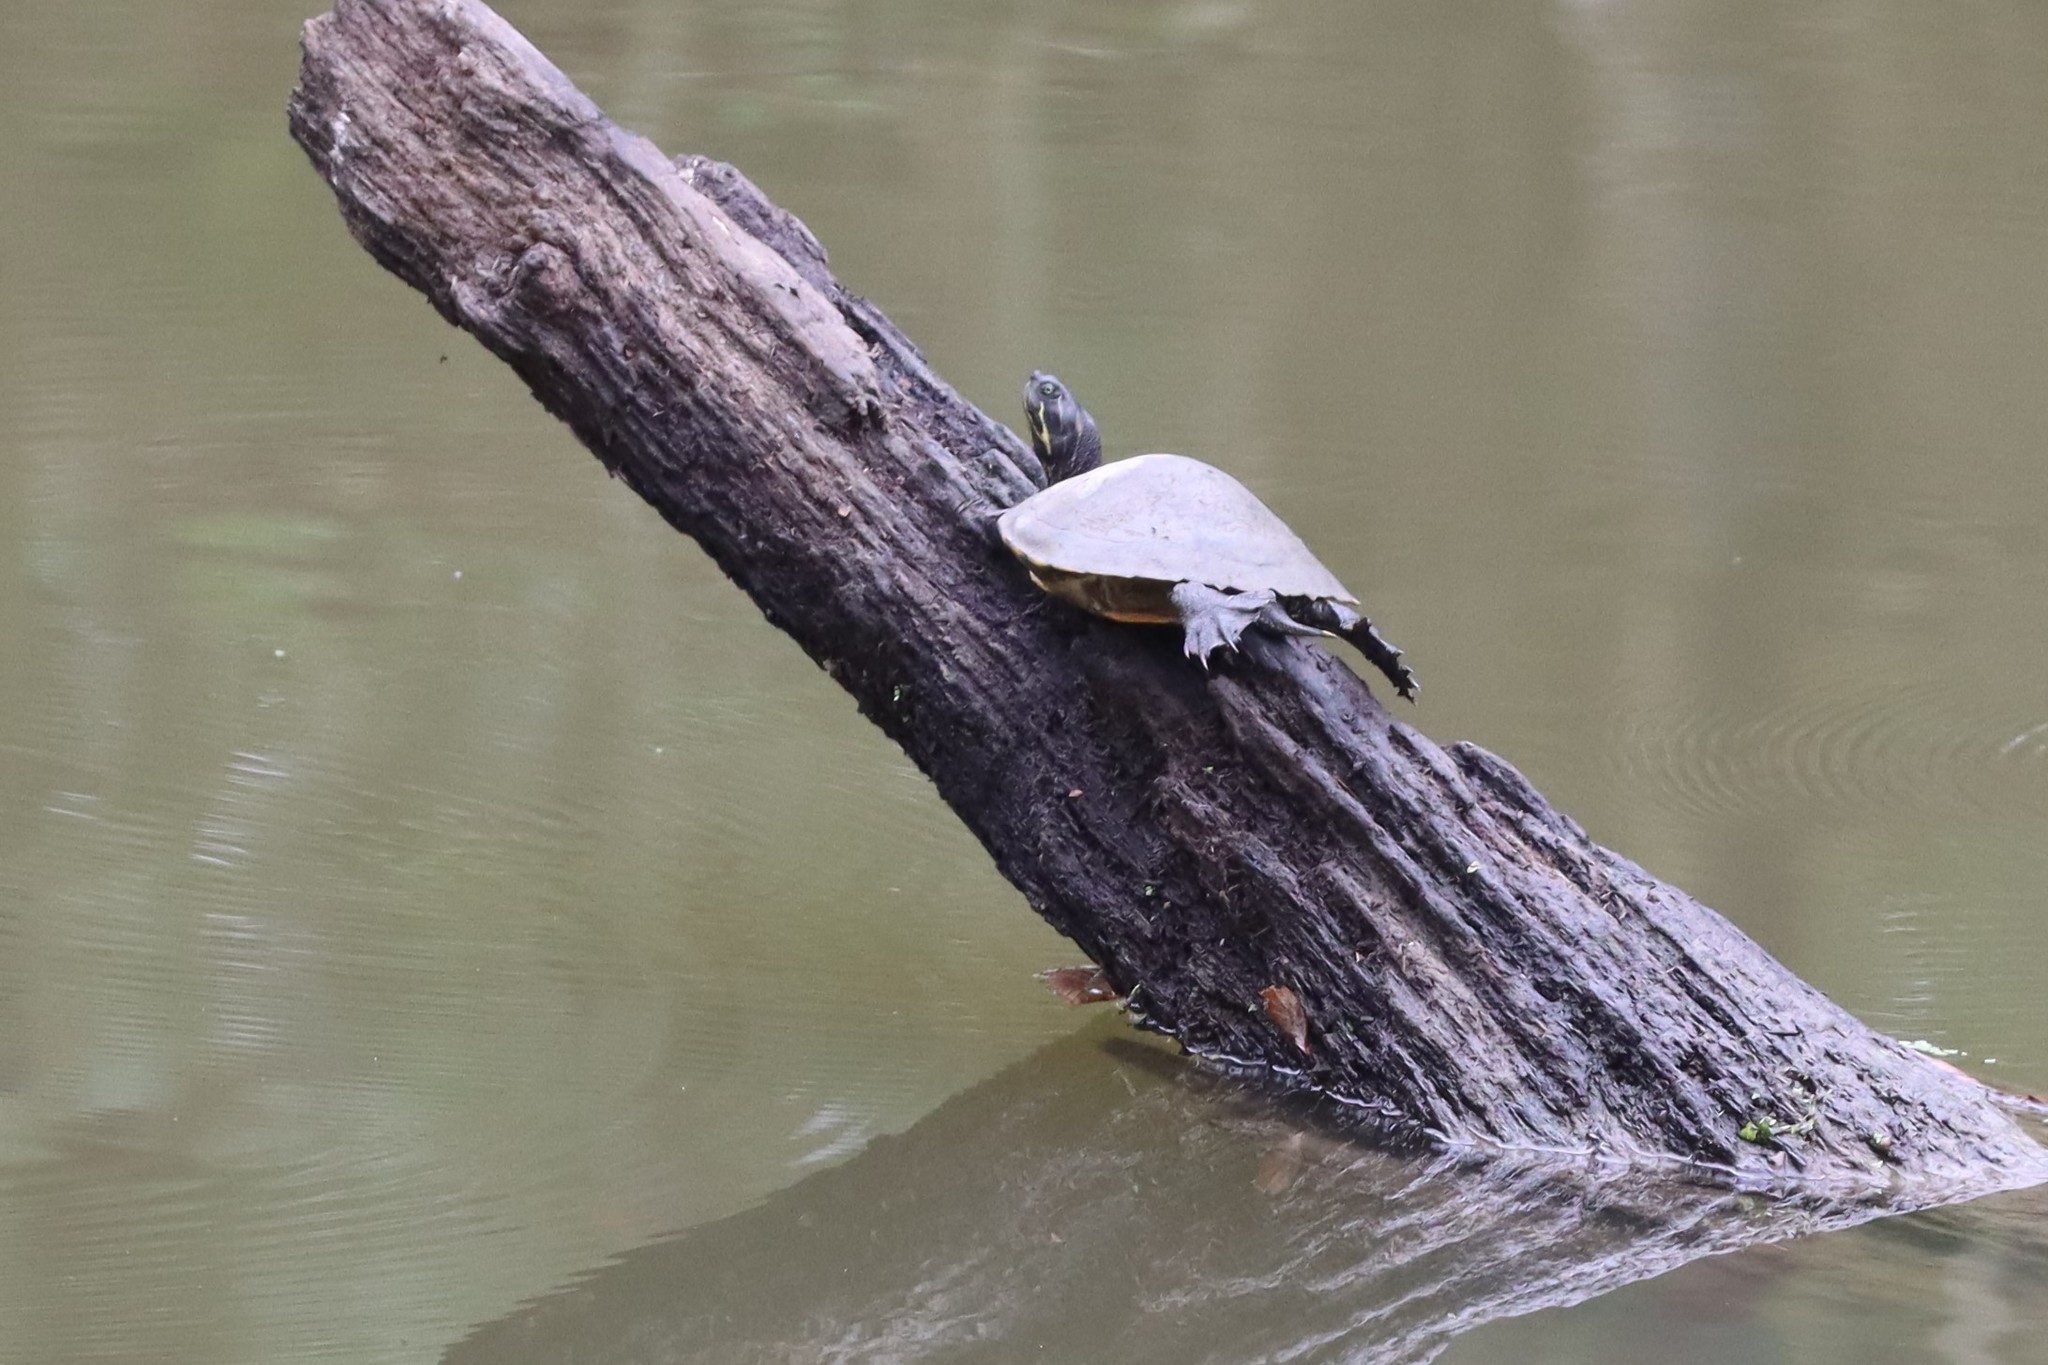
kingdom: Animalia
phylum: Chordata
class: Testudines
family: Emydidae
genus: Pseudemys
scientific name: Pseudemys concinna
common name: Eastern river cooter
